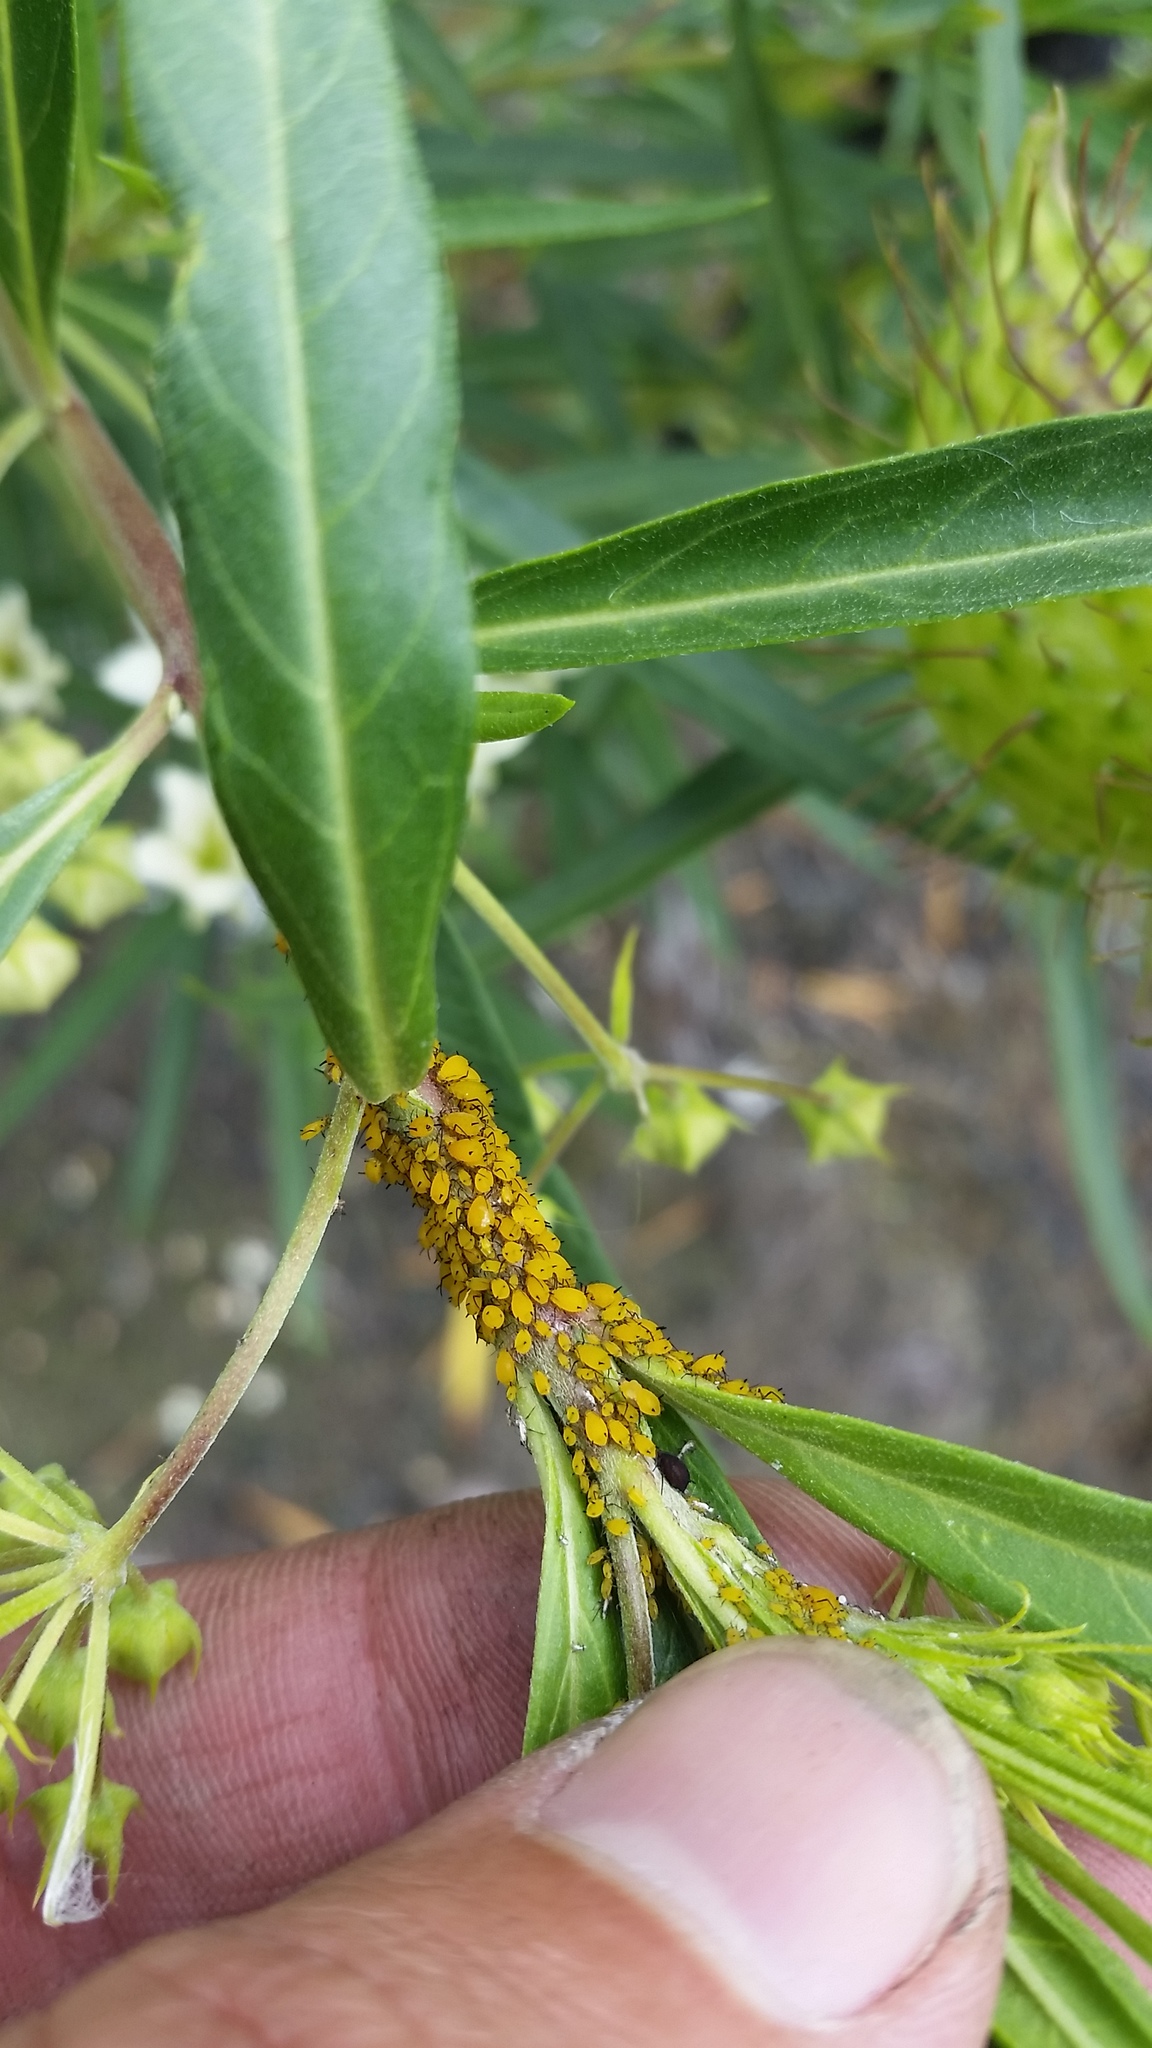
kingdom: Animalia
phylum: Arthropoda
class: Insecta
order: Hemiptera
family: Aphididae
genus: Aphis
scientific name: Aphis nerii
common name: Oleander aphid
